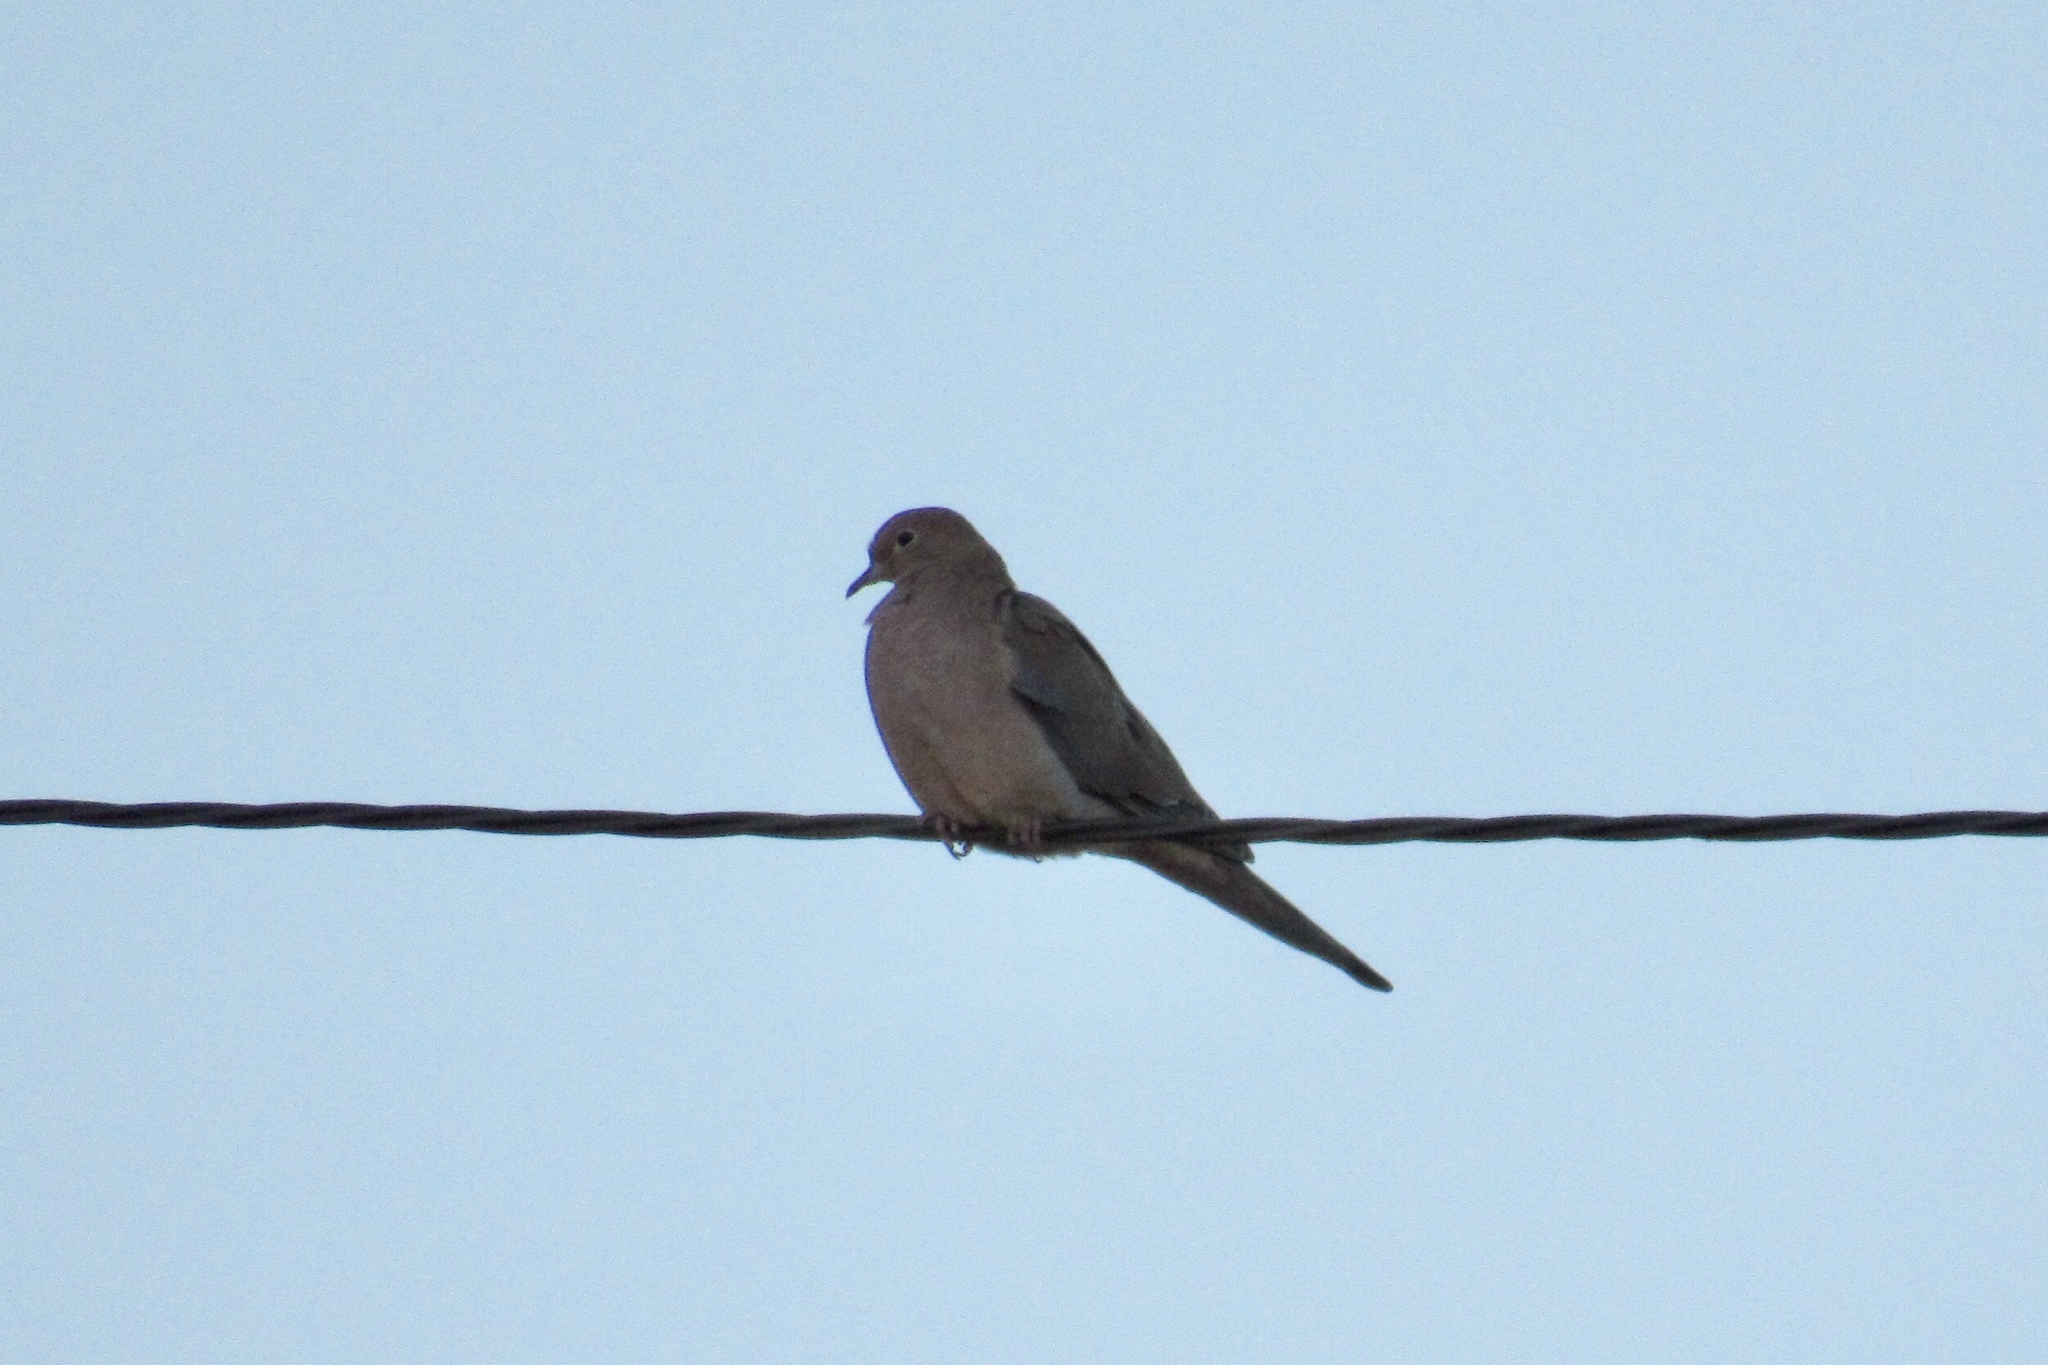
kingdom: Animalia
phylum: Chordata
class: Aves
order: Columbiformes
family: Columbidae
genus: Zenaida
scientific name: Zenaida macroura
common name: Mourning dove
